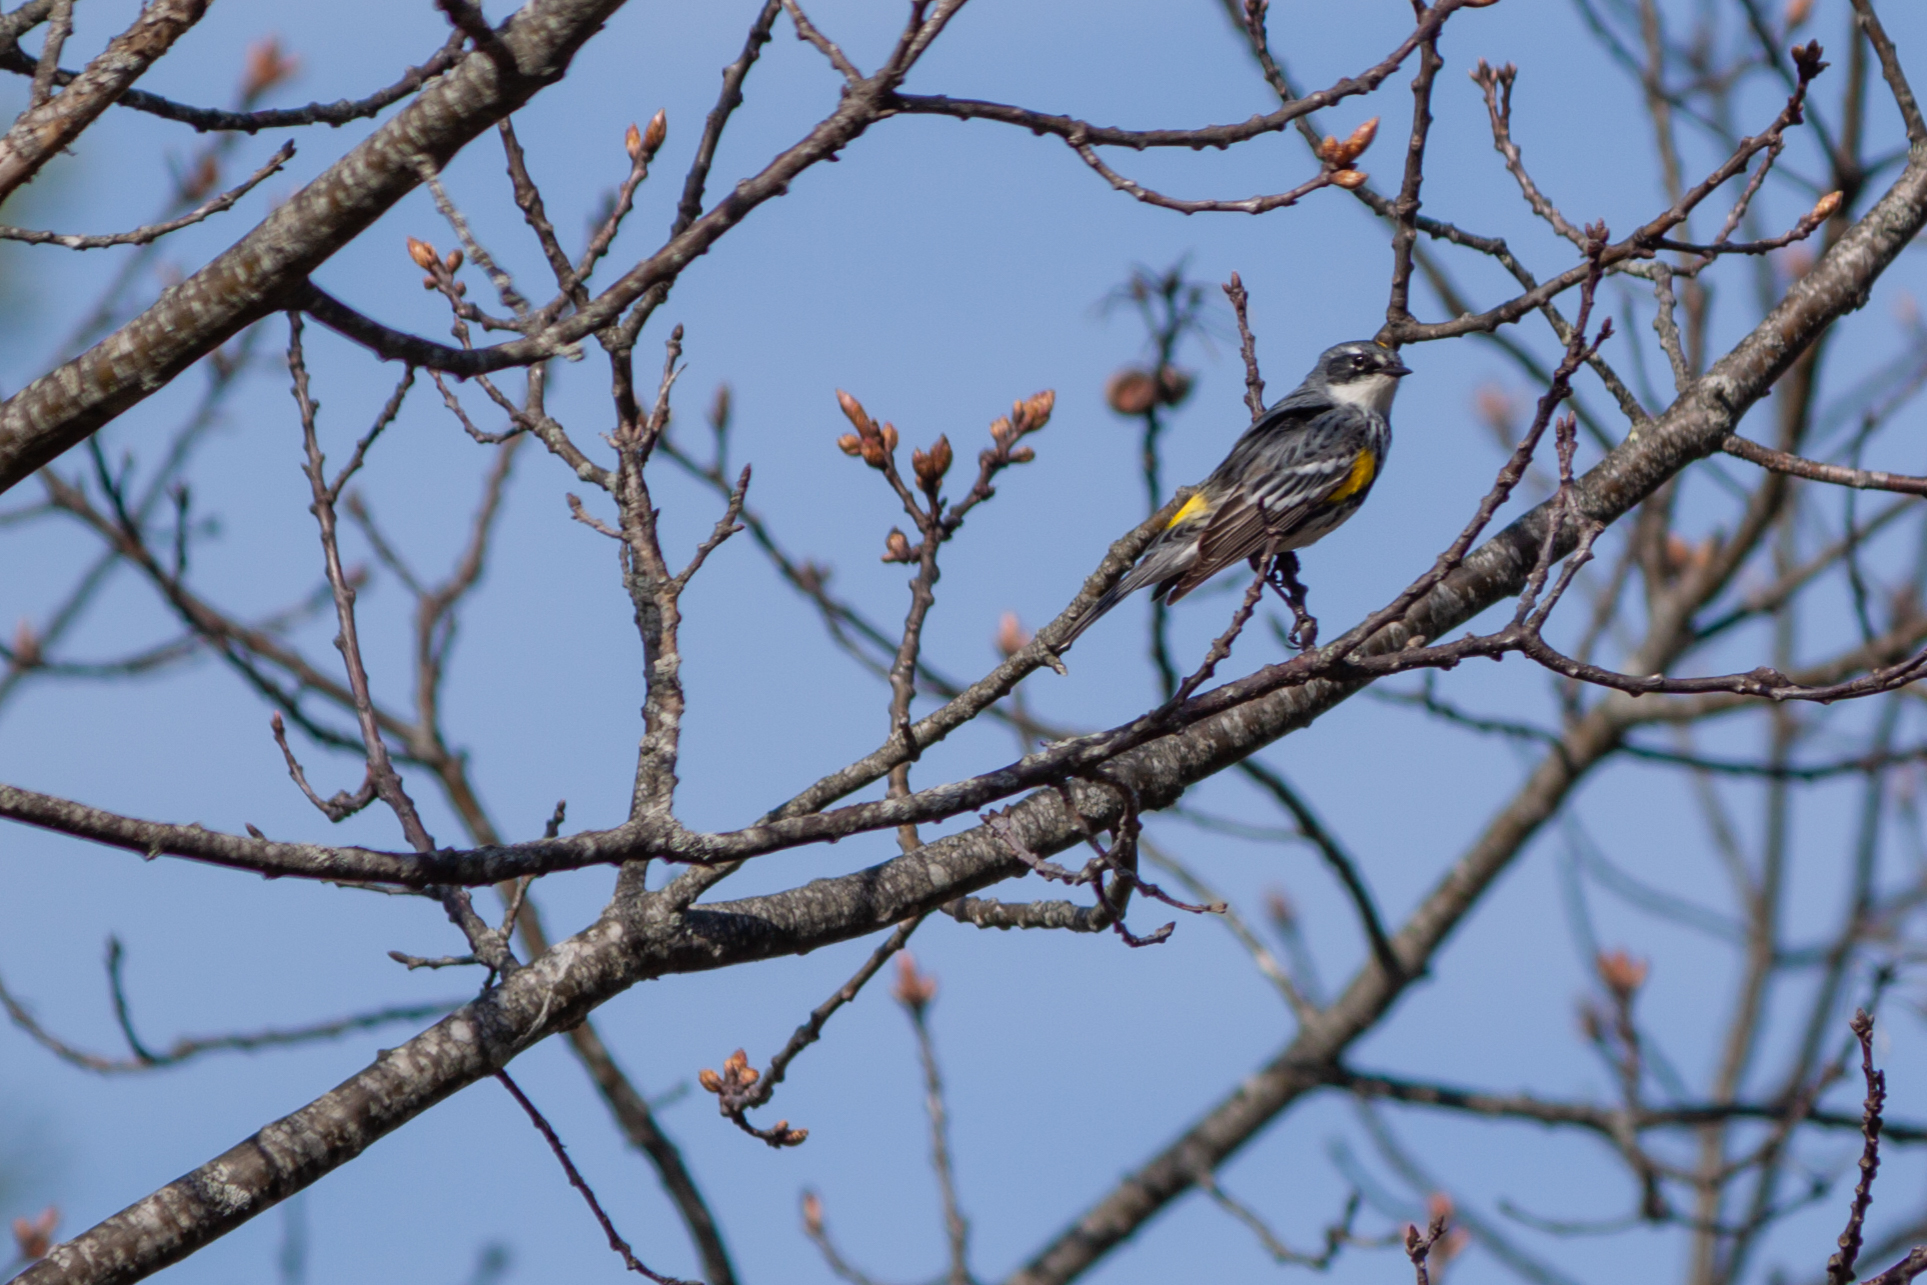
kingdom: Animalia
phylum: Chordata
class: Aves
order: Passeriformes
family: Parulidae
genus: Setophaga
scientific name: Setophaga coronata
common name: Myrtle warbler
